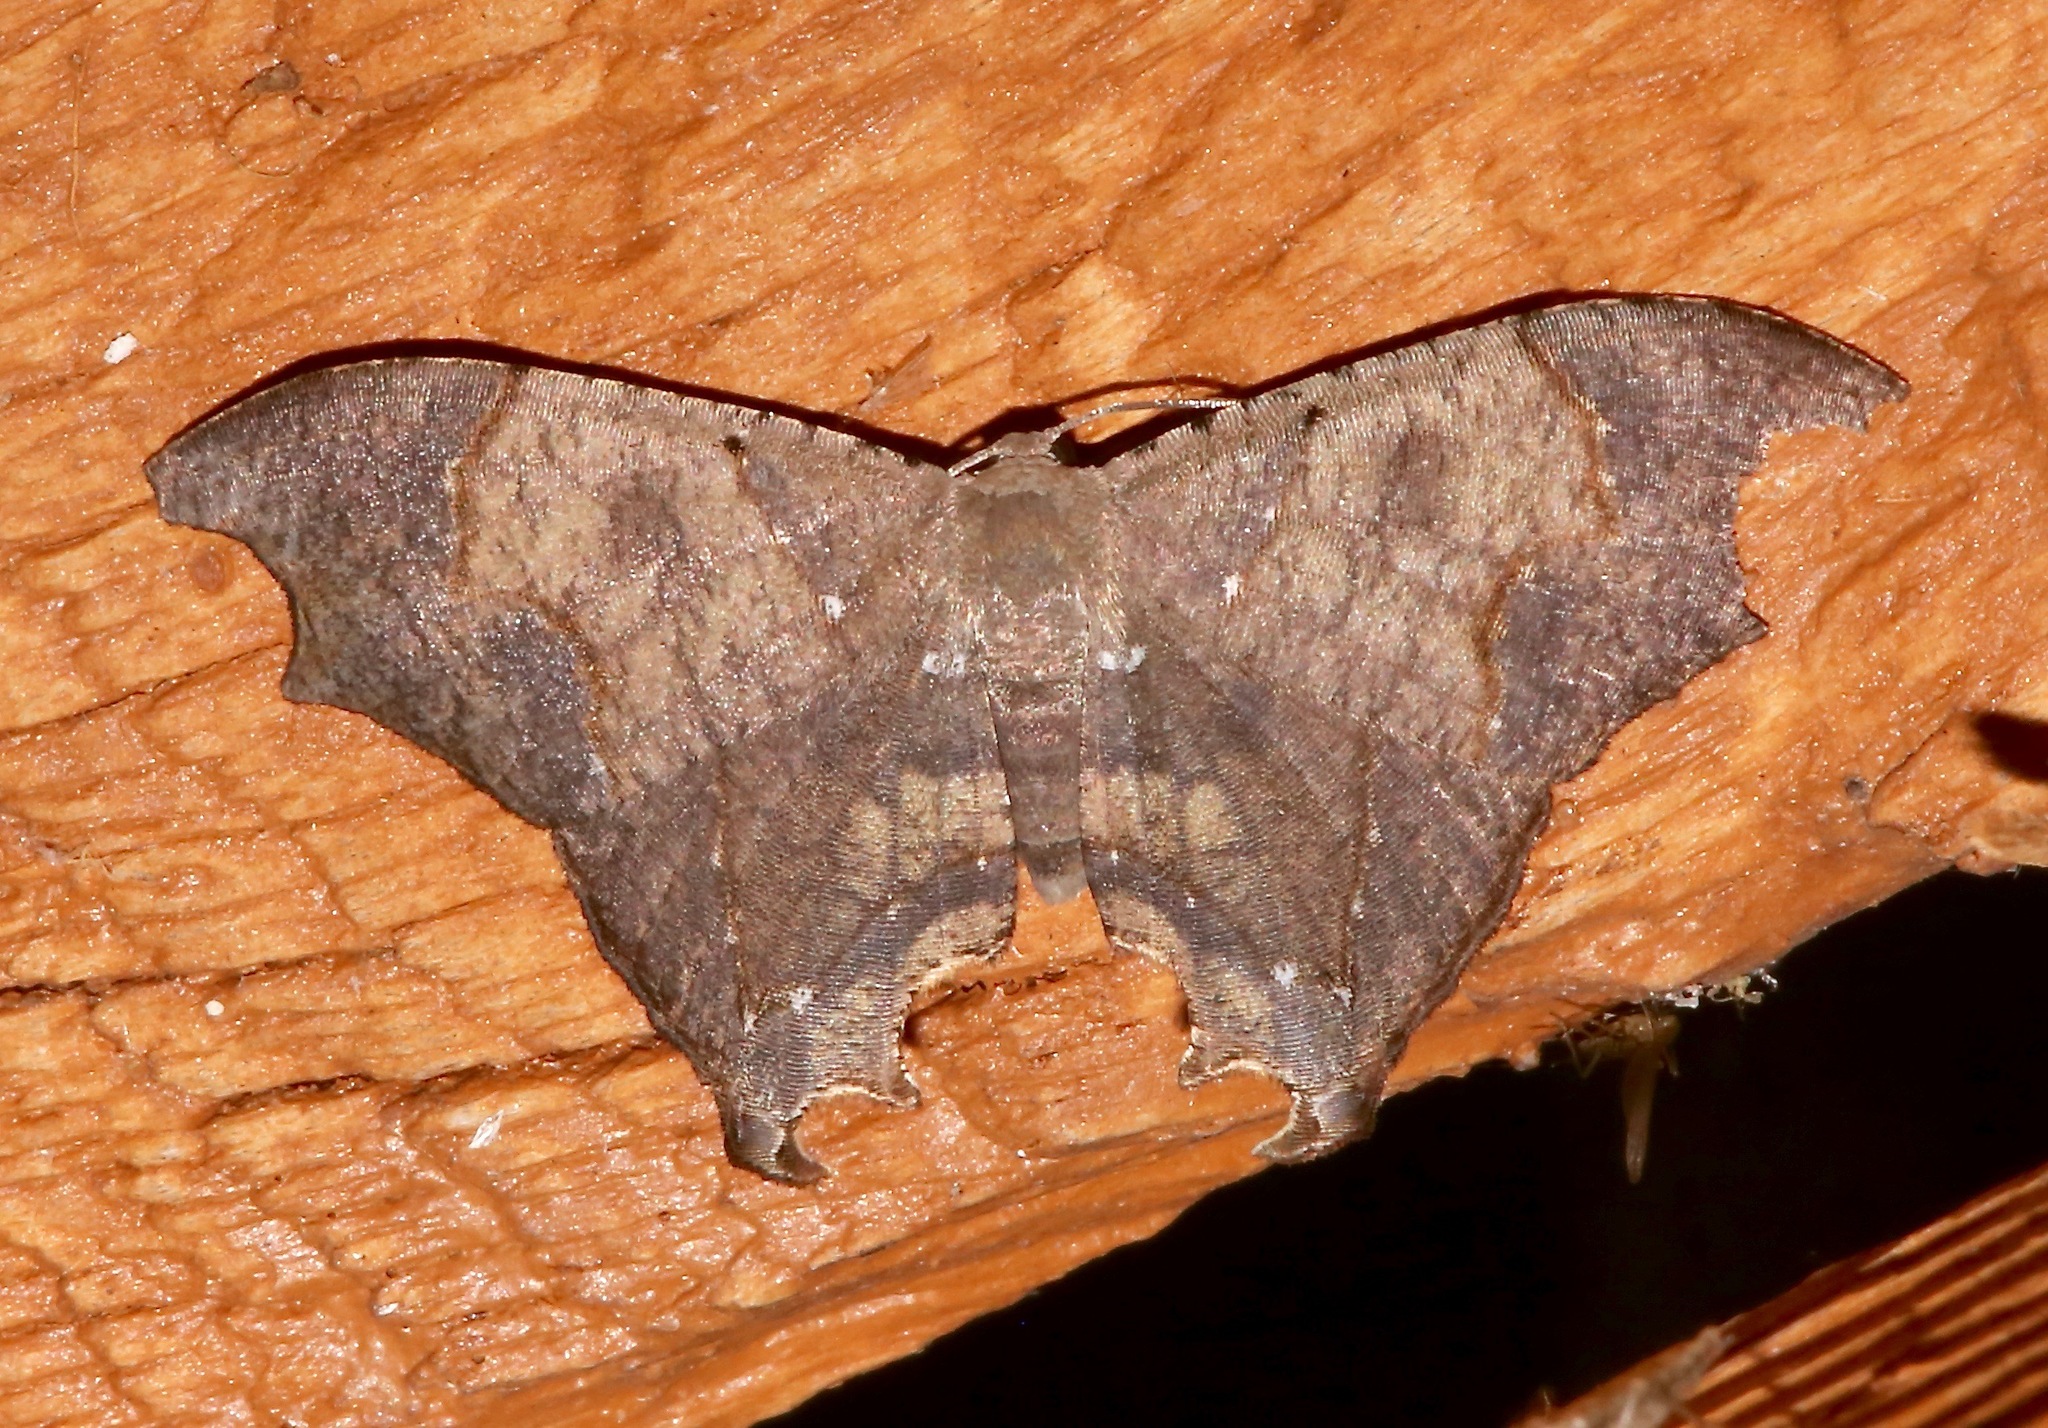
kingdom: Animalia
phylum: Arthropoda
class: Insecta
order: Lepidoptera
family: Uraniidae
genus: Trotorhombia
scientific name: Trotorhombia metachromata
